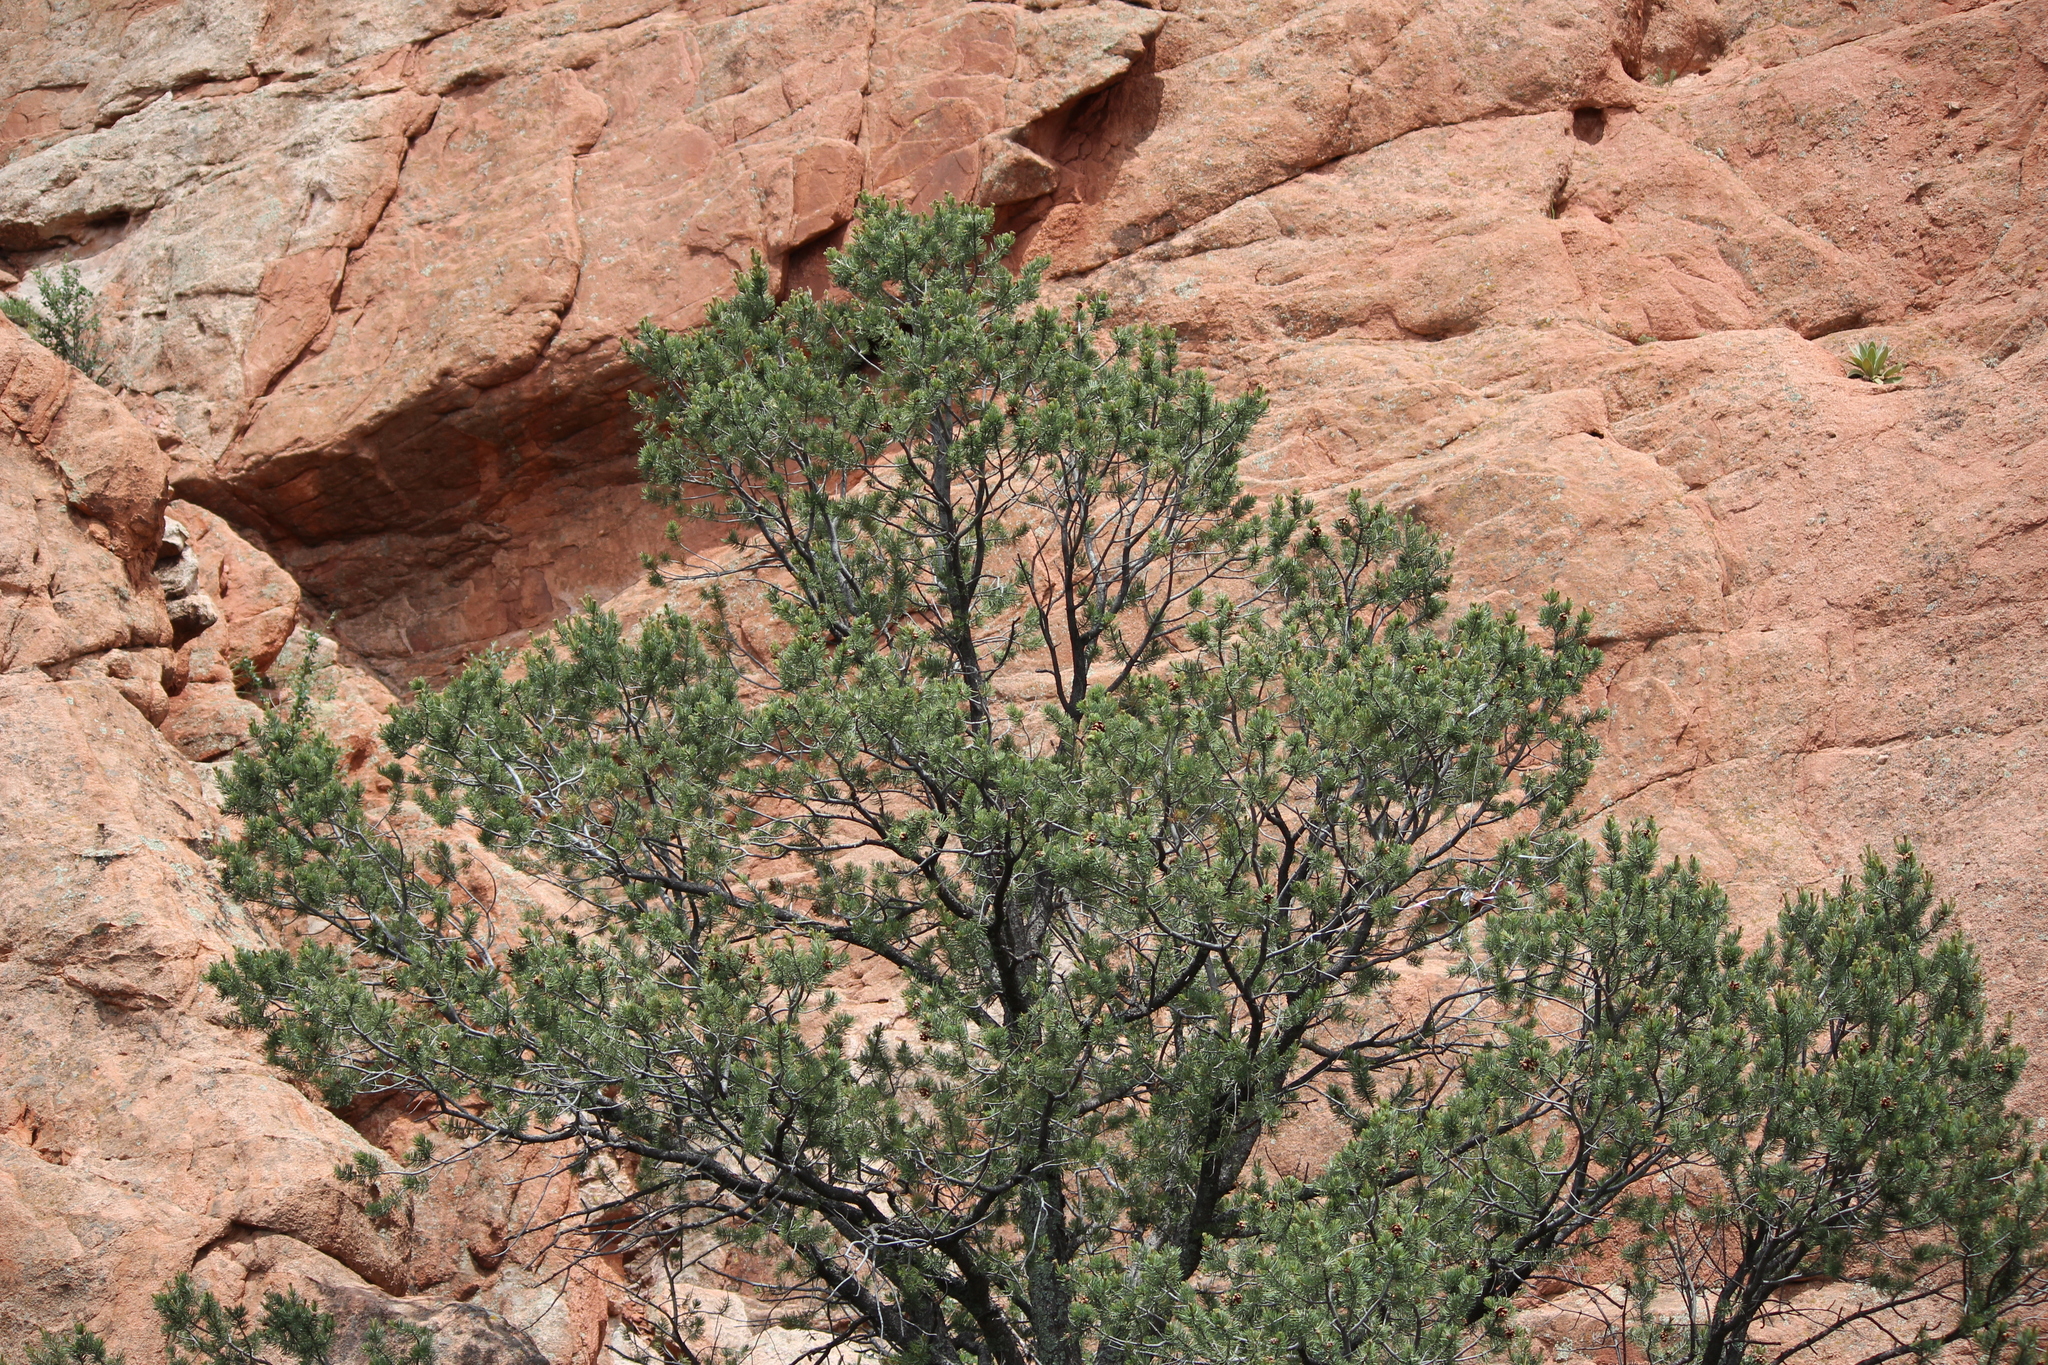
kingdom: Plantae
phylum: Tracheophyta
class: Pinopsida
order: Pinales
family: Pinaceae
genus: Pinus
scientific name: Pinus edulis
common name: Colorado pinyon
